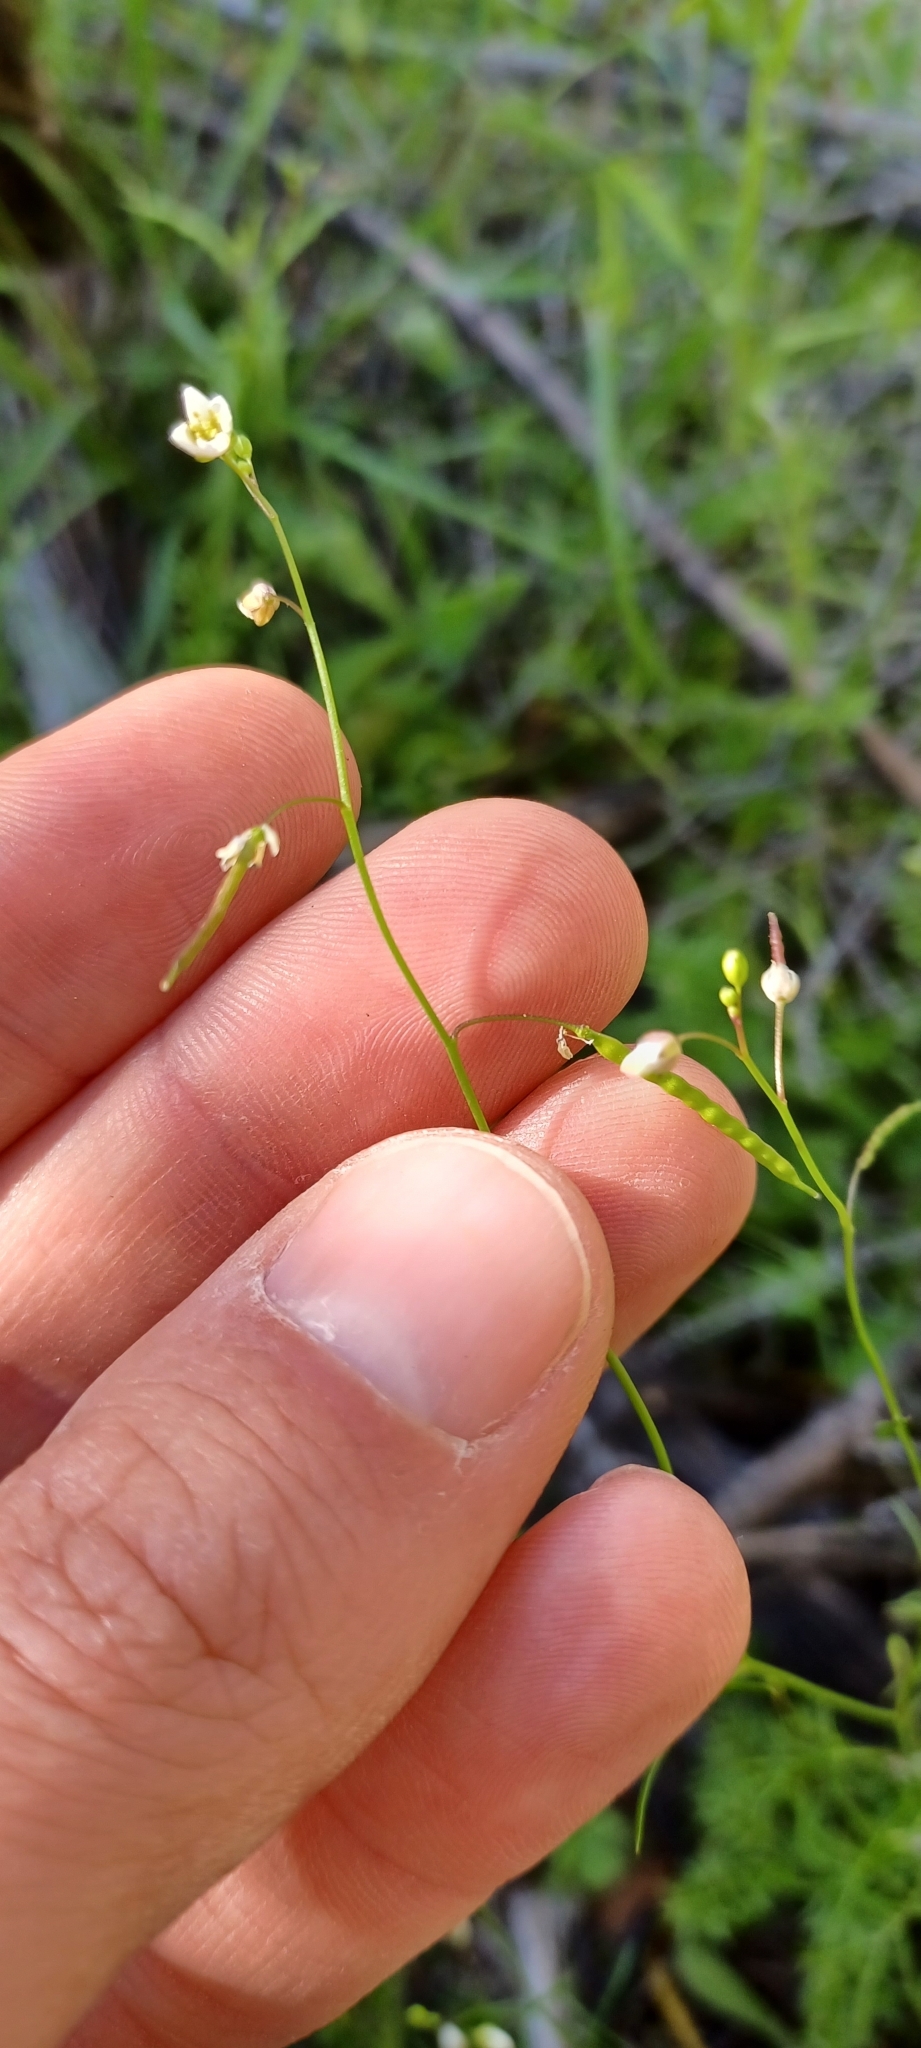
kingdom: Plantae
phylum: Tracheophyta
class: Magnoliopsida
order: Brassicales
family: Brassicaceae
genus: Heliophila
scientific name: Heliophila pectinata
